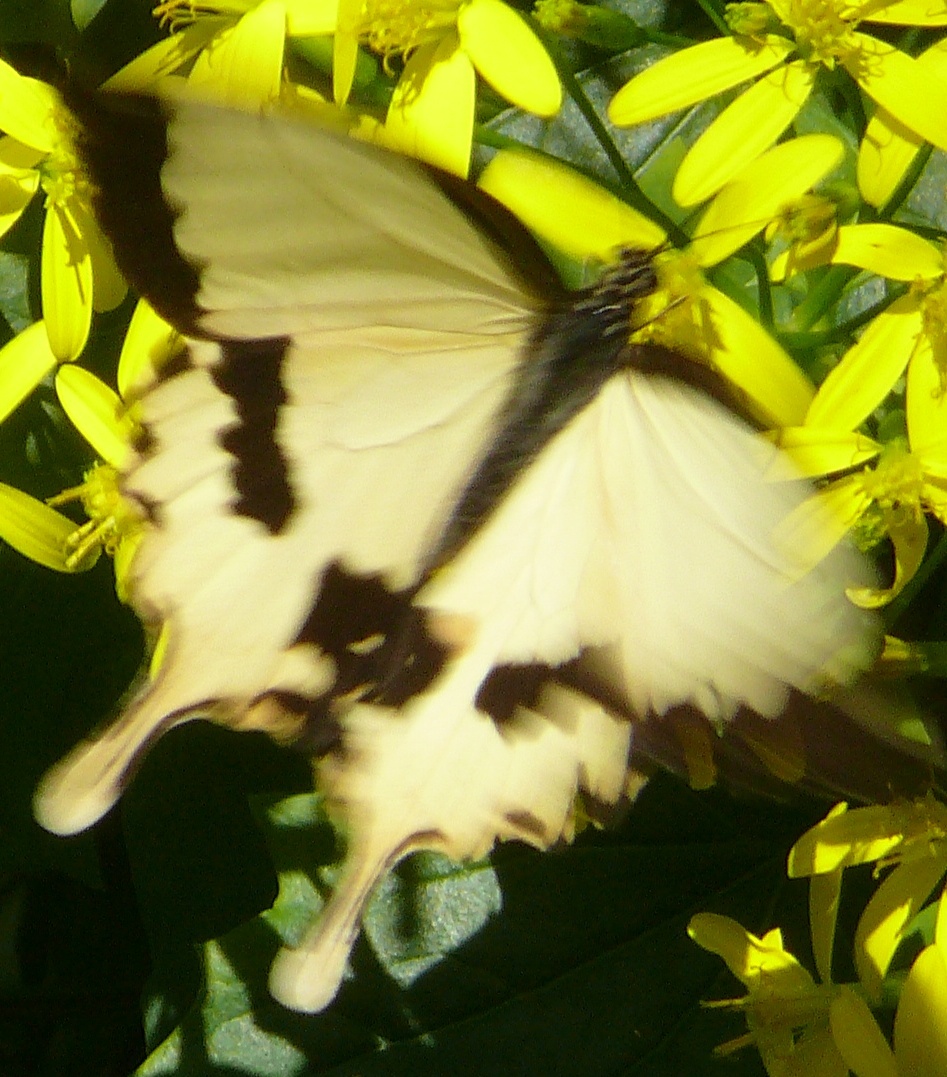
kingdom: Animalia
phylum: Arthropoda
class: Insecta
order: Lepidoptera
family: Papilionidae
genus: Papilio
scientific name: Papilio dardanus
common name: Flying handkerchief
